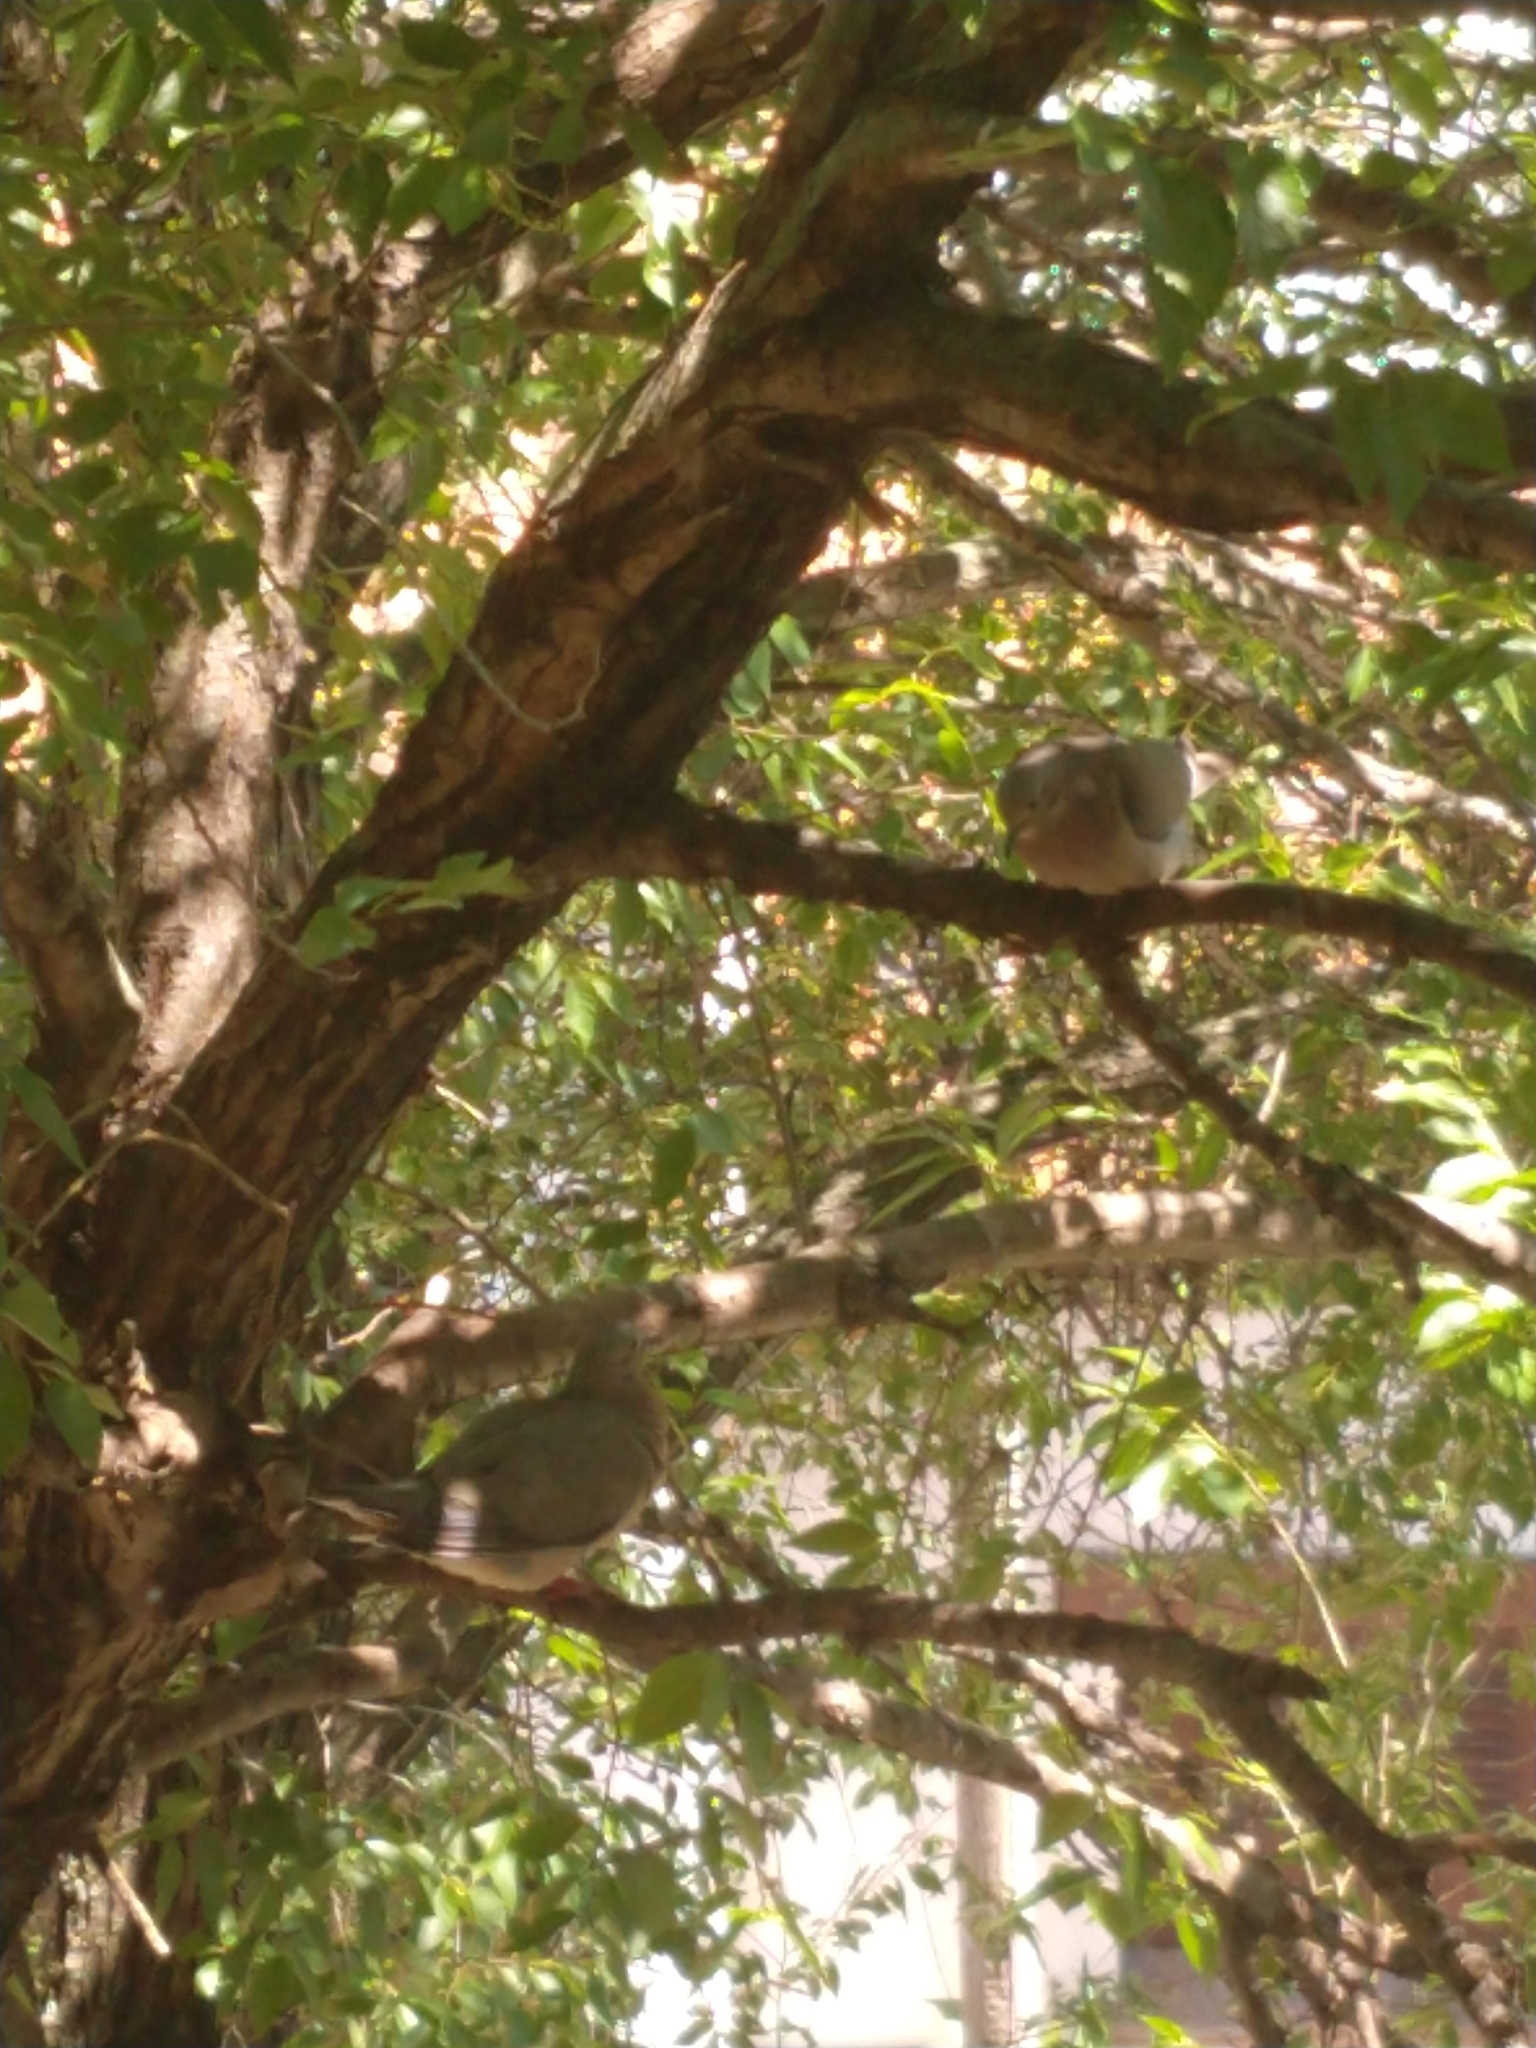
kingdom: Animalia
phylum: Chordata
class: Aves
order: Columbiformes
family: Columbidae
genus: Zenaida
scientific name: Zenaida auriculata
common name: Eared dove
